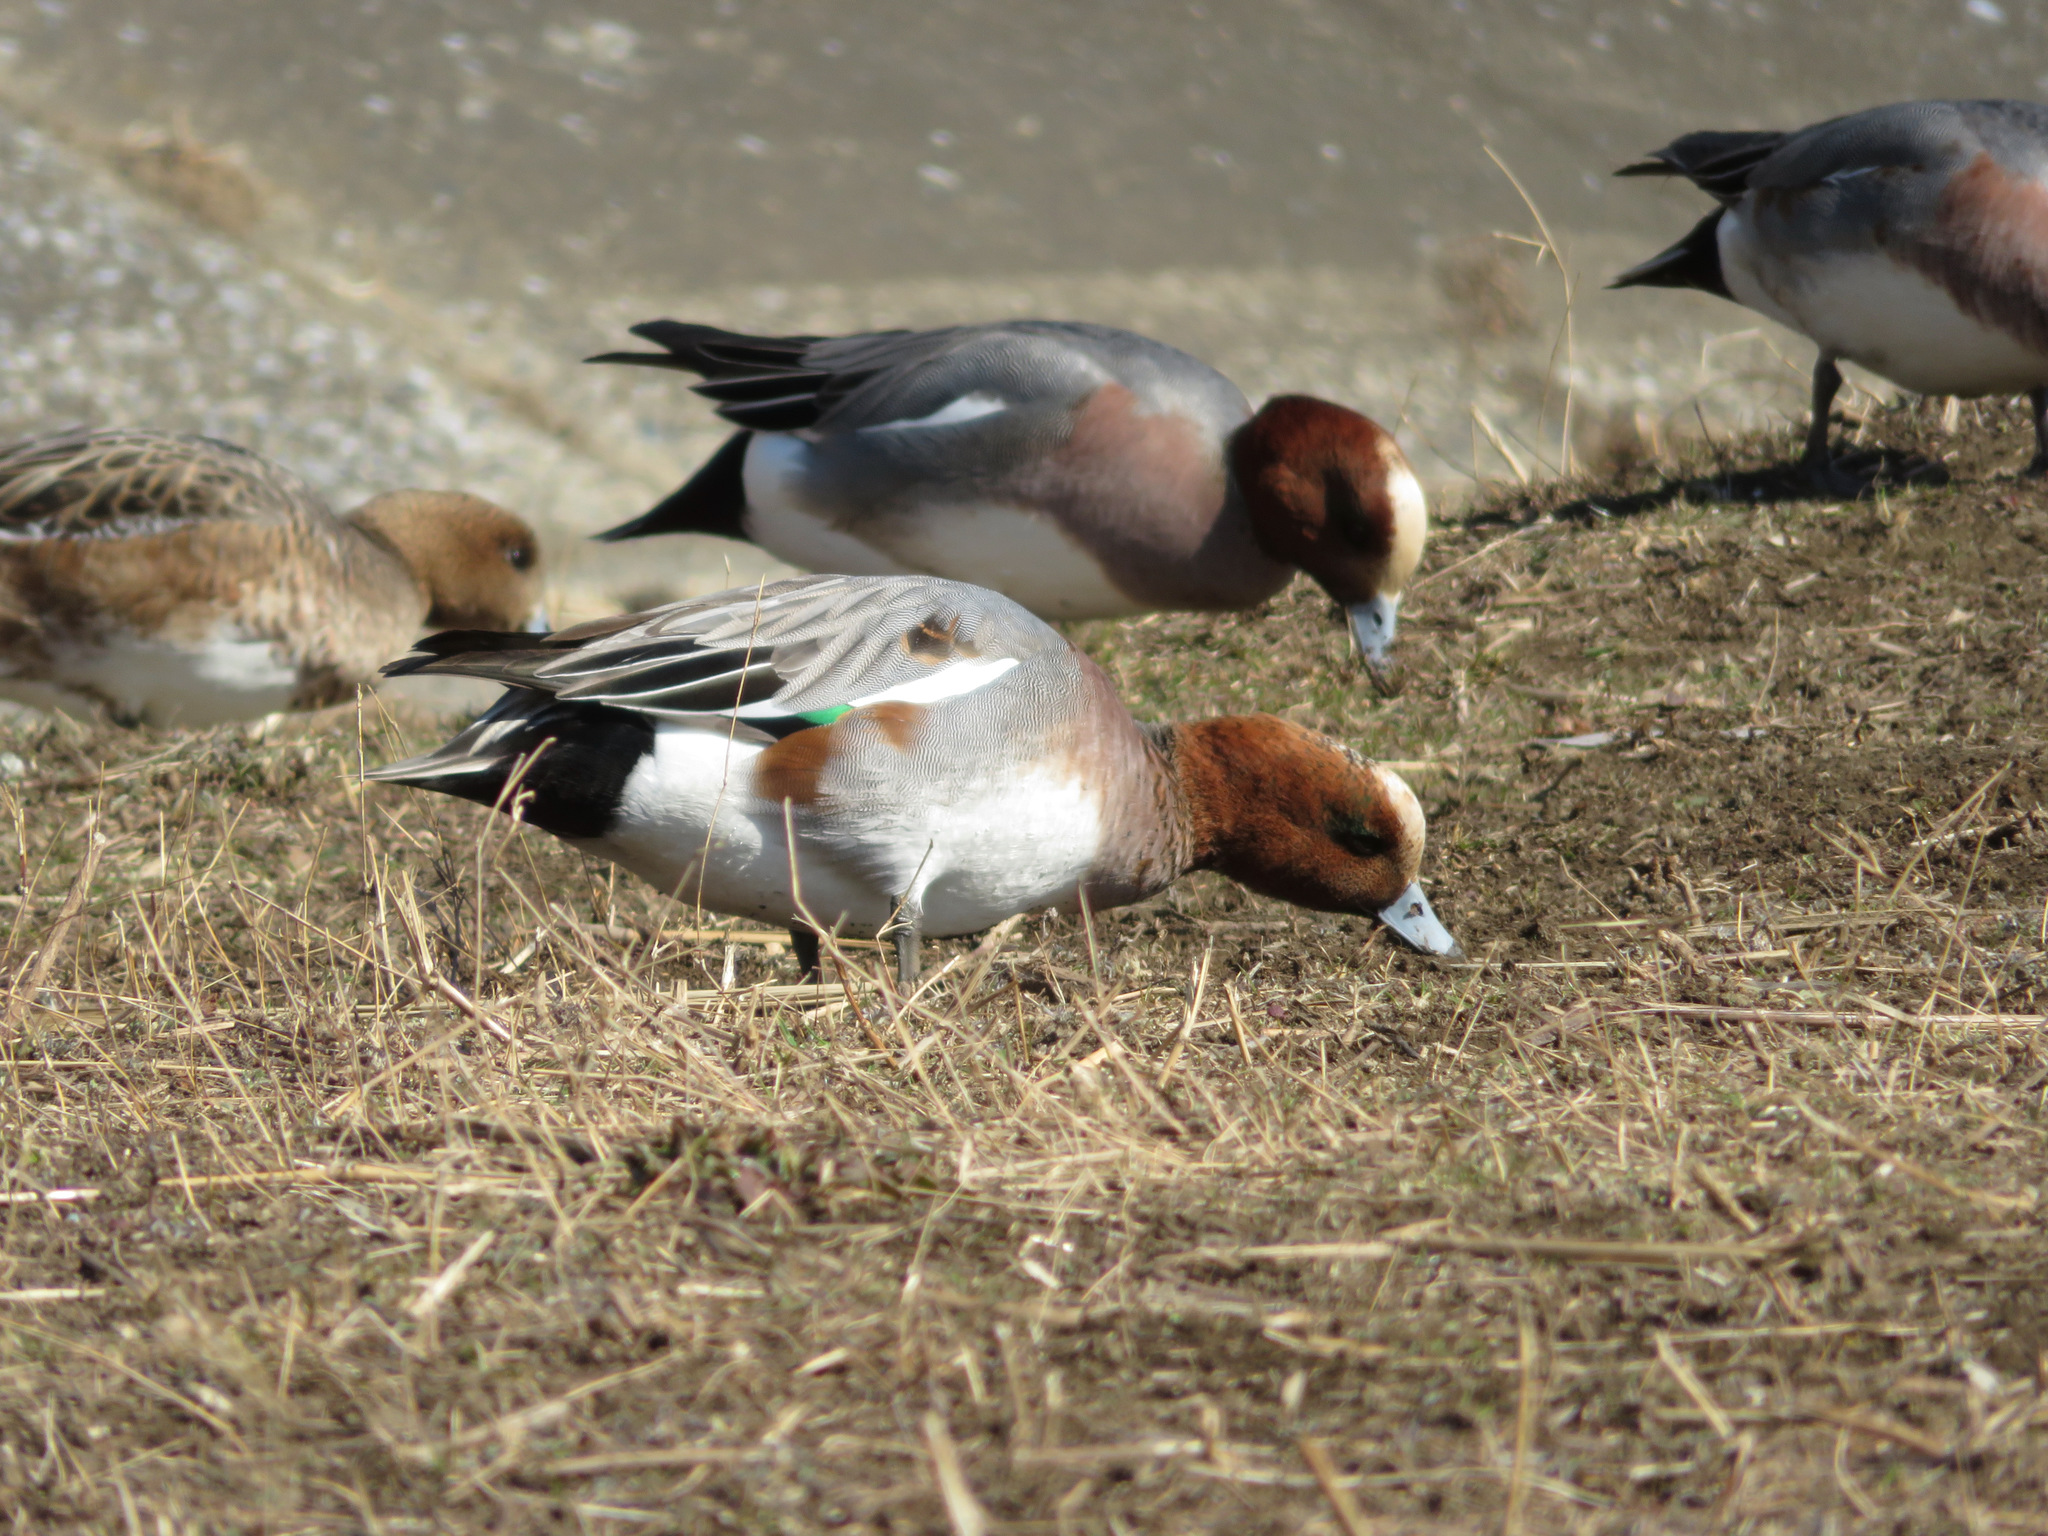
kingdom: Animalia
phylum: Chordata
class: Aves
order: Anseriformes
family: Anatidae
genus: Mareca
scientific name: Mareca penelope
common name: Eurasian wigeon
